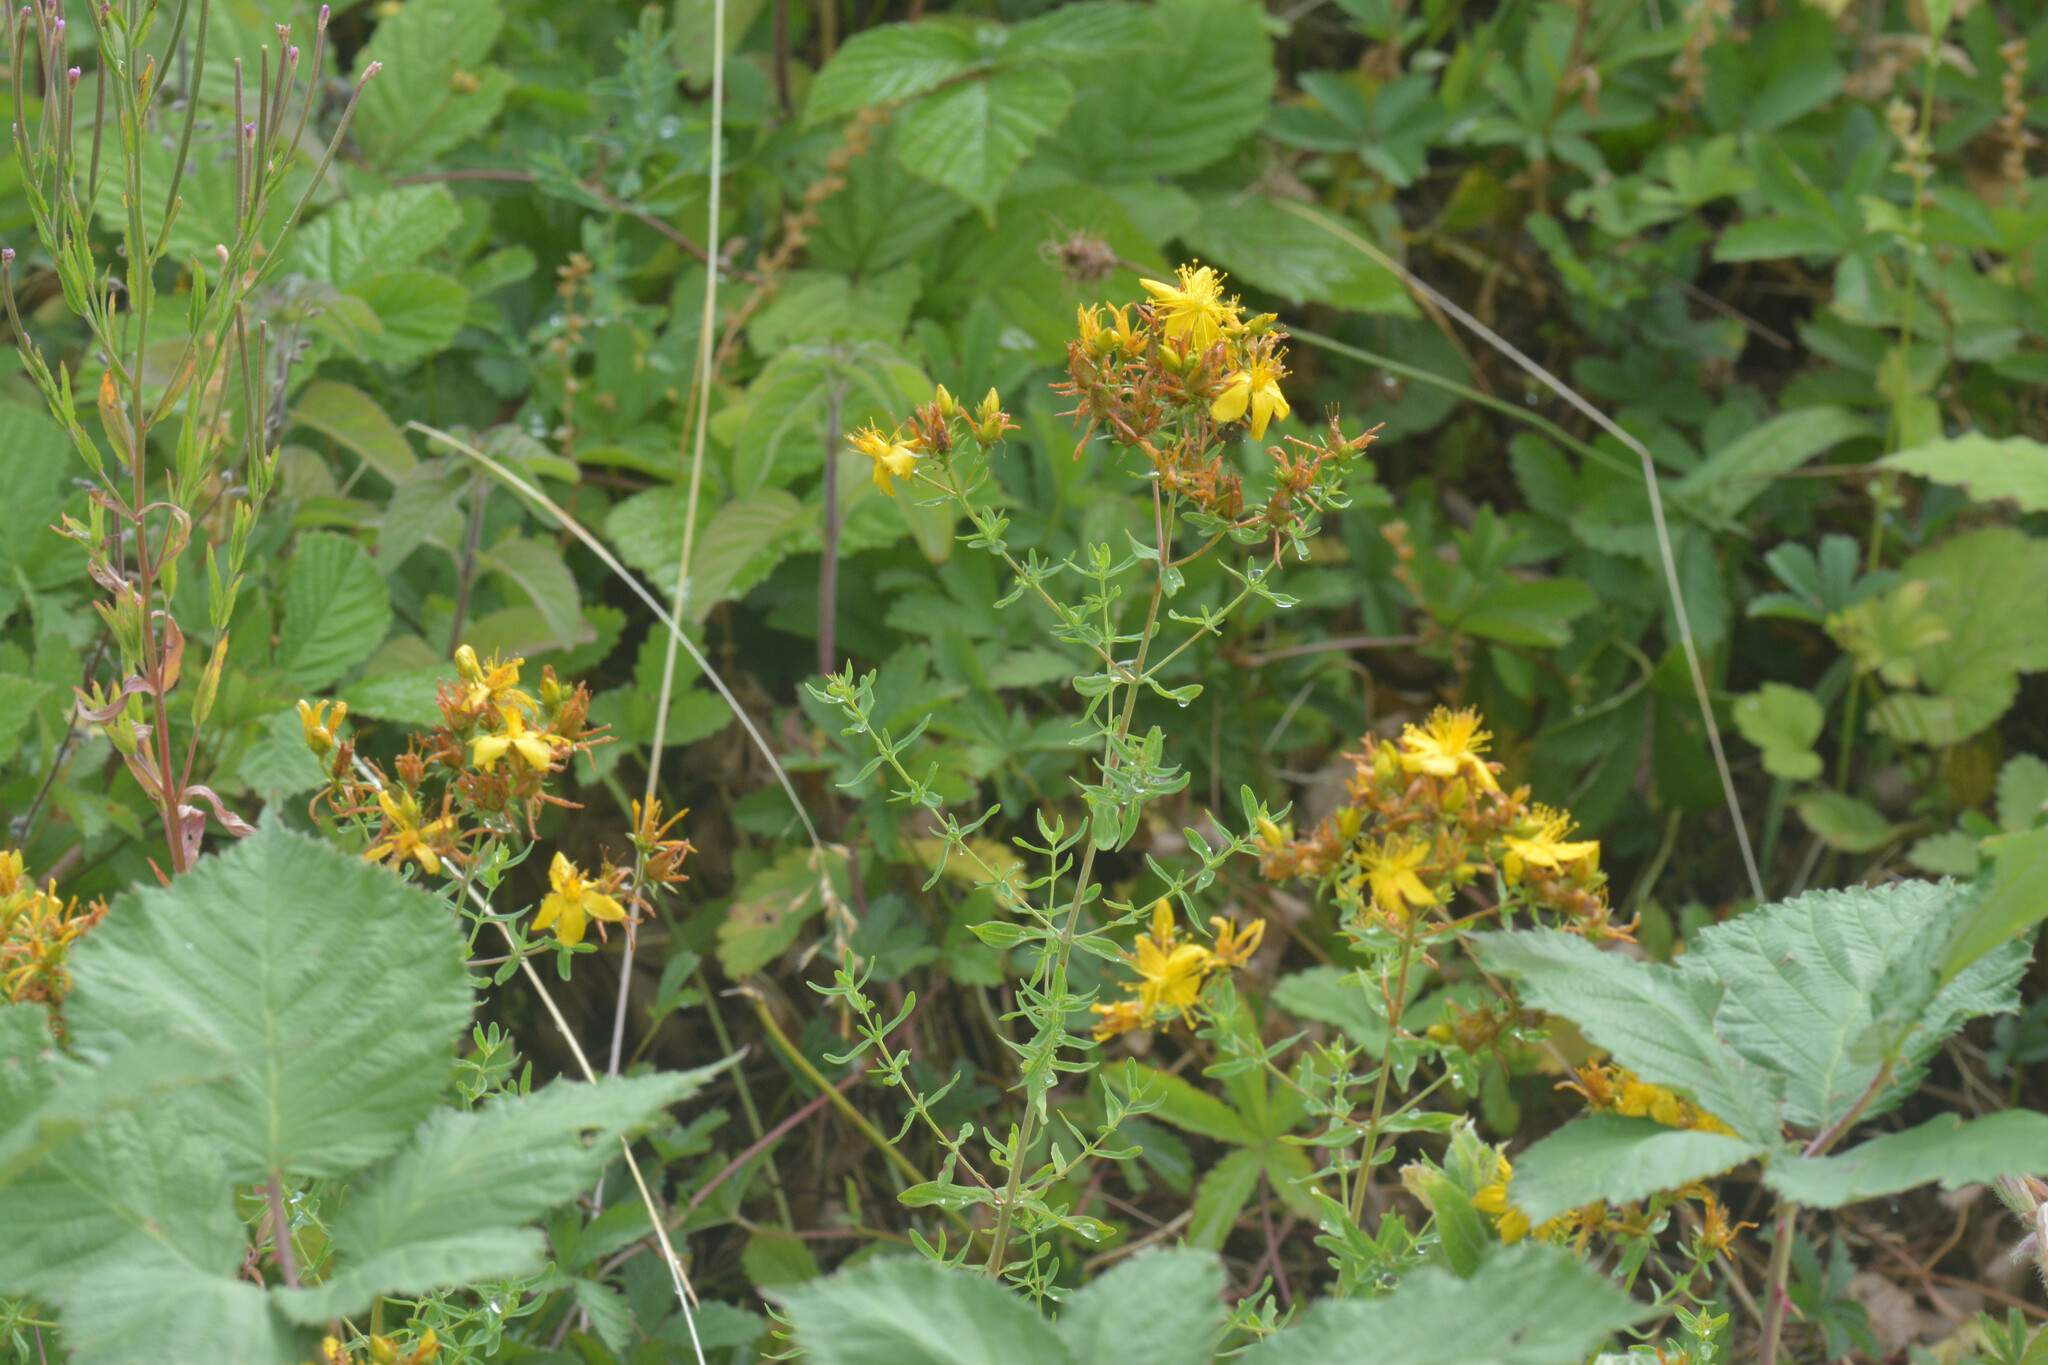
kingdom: Plantae
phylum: Tracheophyta
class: Magnoliopsida
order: Malpighiales
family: Hypericaceae
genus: Hypericum
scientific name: Hypericum perforatum
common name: Common st. johnswort
